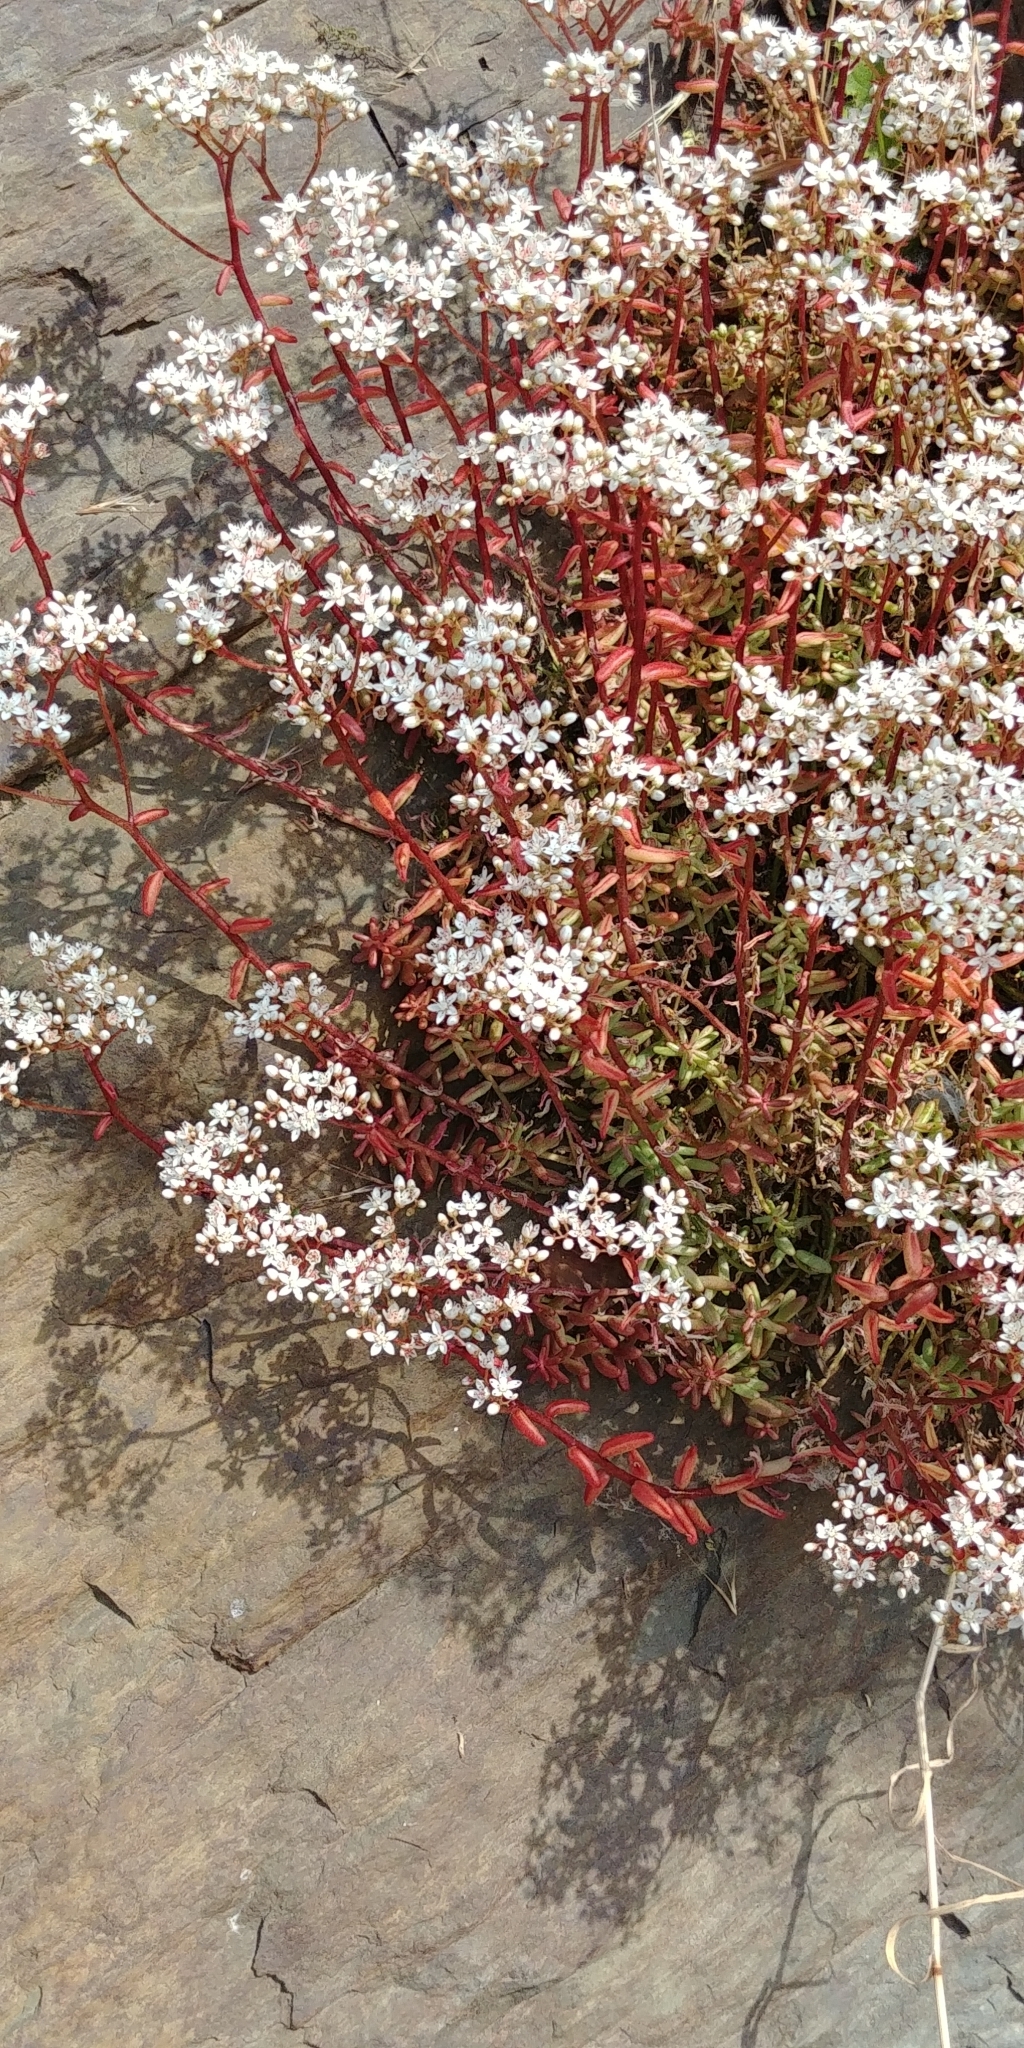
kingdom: Plantae
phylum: Tracheophyta
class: Magnoliopsida
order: Saxifragales
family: Crassulaceae
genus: Sedum
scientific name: Sedum album
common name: White stonecrop
